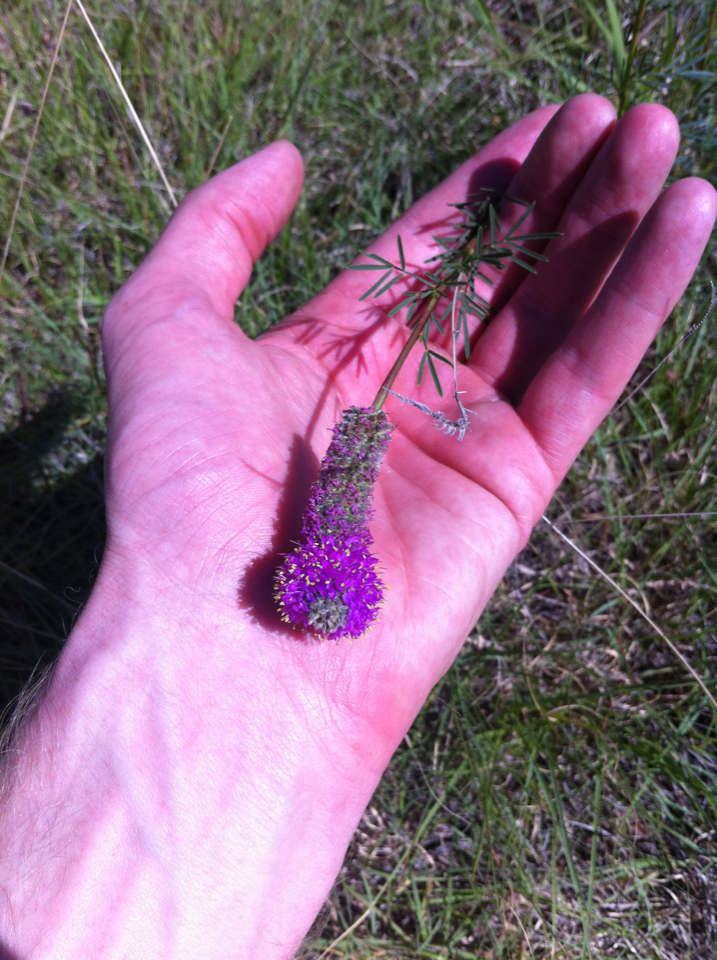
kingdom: Plantae
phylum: Tracheophyta
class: Magnoliopsida
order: Fabales
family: Fabaceae
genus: Dalea
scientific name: Dalea purpurea
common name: Purple prairie-clover
